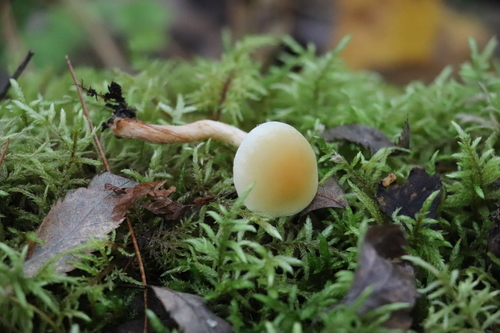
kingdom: Fungi
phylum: Basidiomycota
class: Agaricomycetes
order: Agaricales
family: Strophariaceae
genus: Hypholoma
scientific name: Hypholoma capnoides
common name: Conifer tuft
